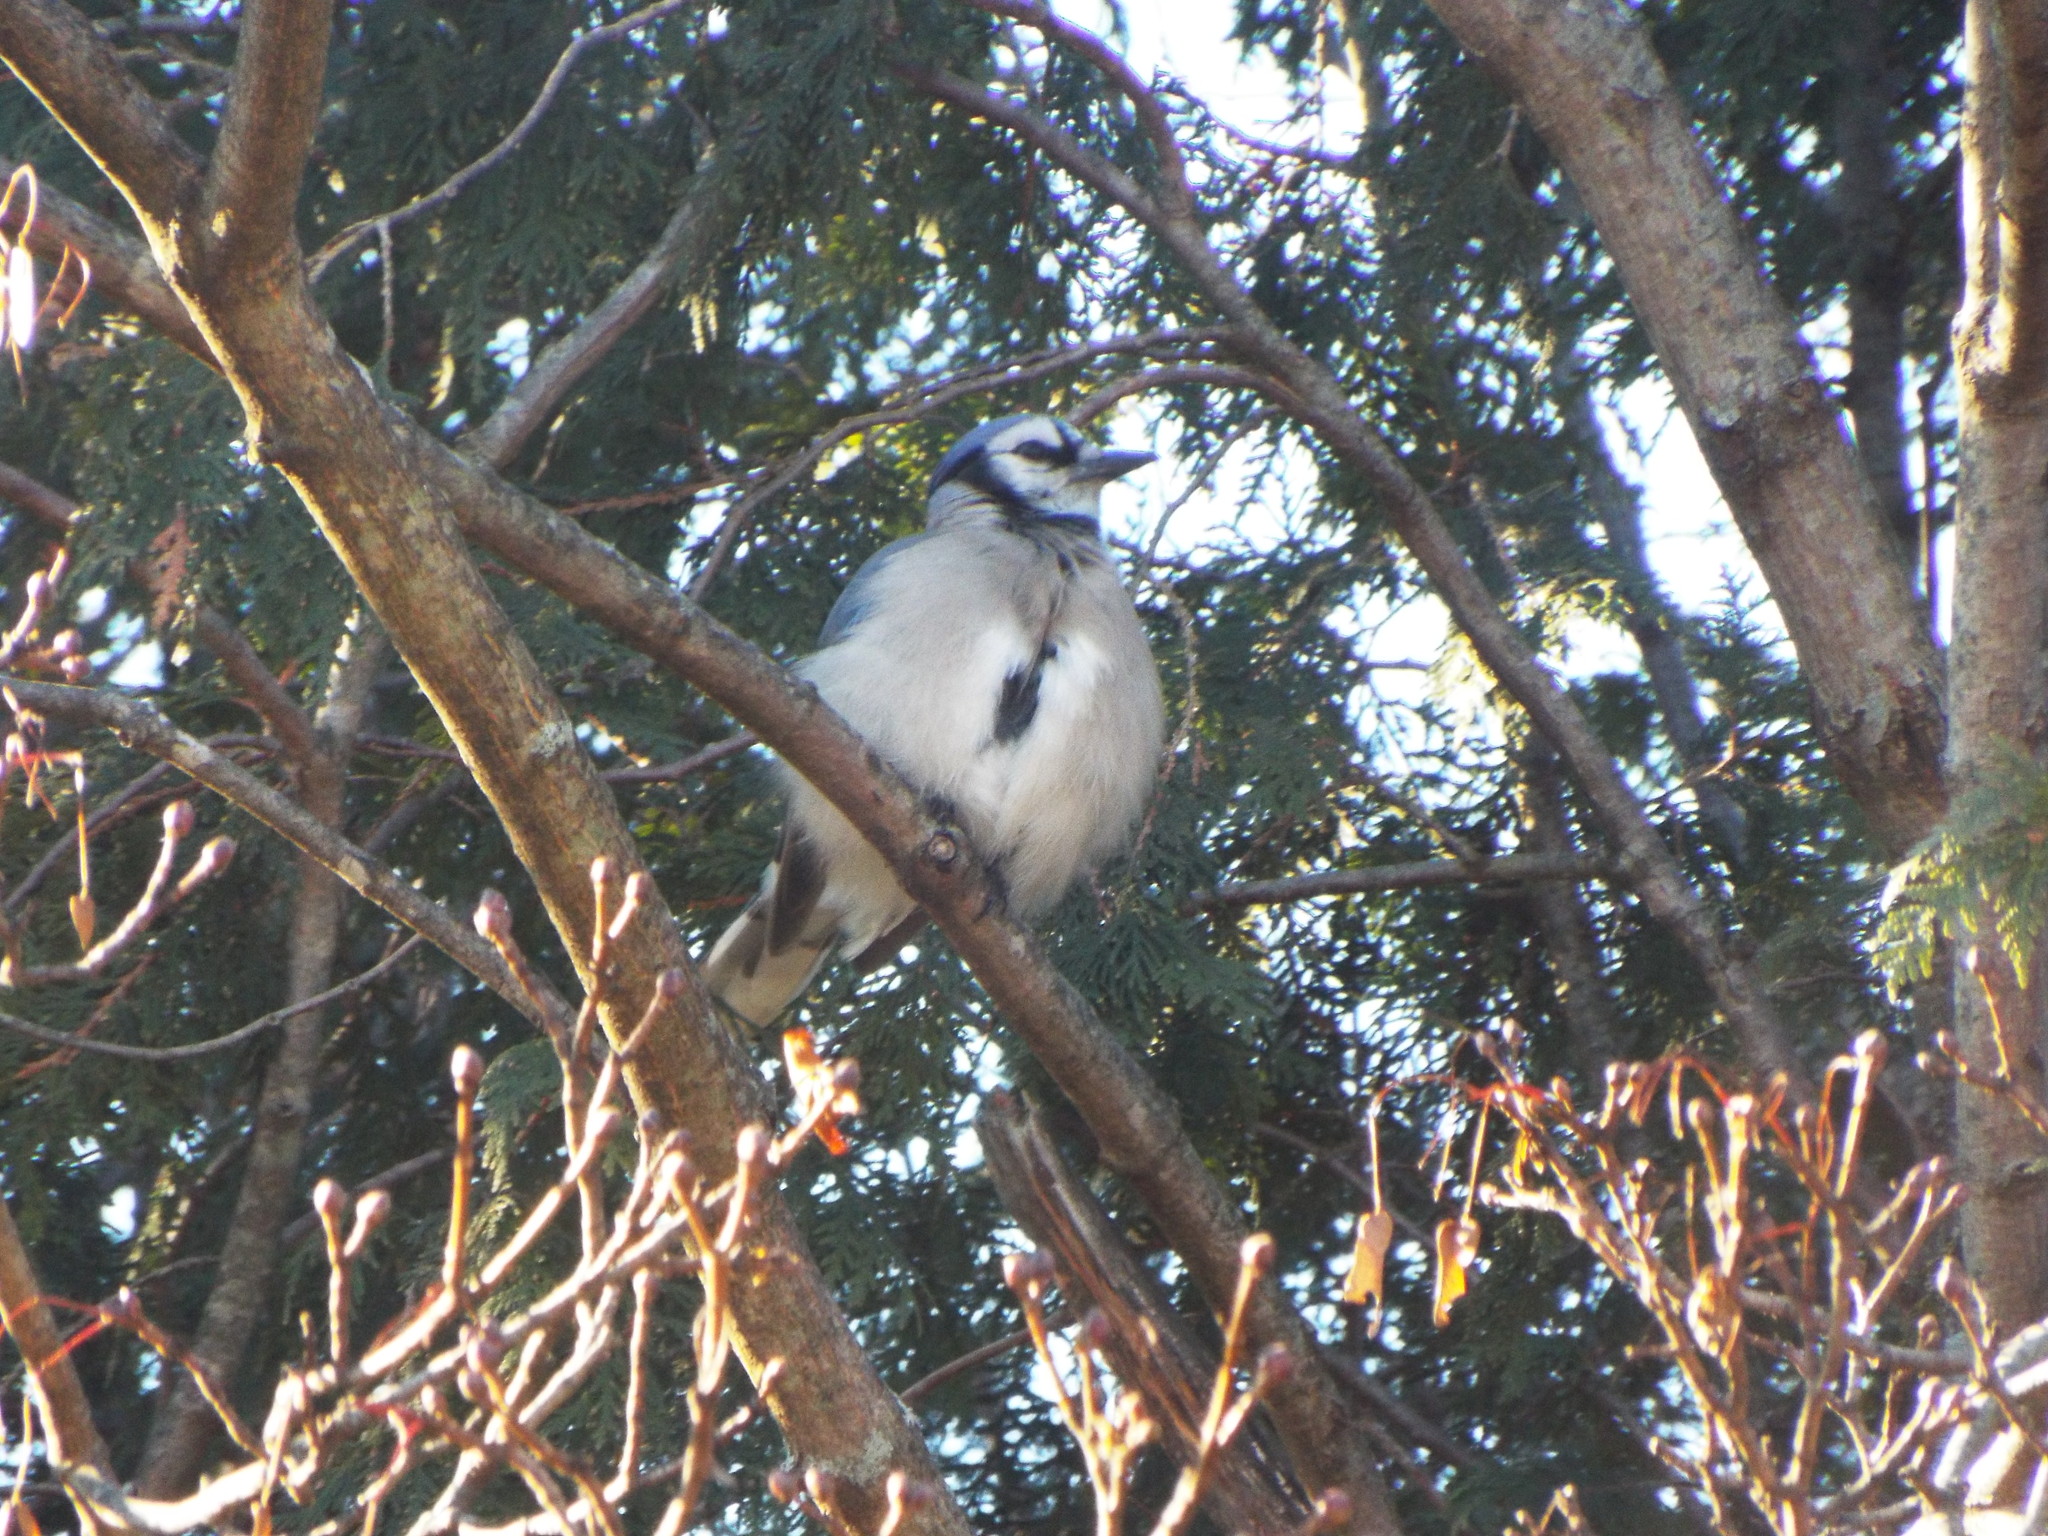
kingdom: Animalia
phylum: Chordata
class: Aves
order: Passeriformes
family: Corvidae
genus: Cyanocitta
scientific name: Cyanocitta cristata
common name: Blue jay
